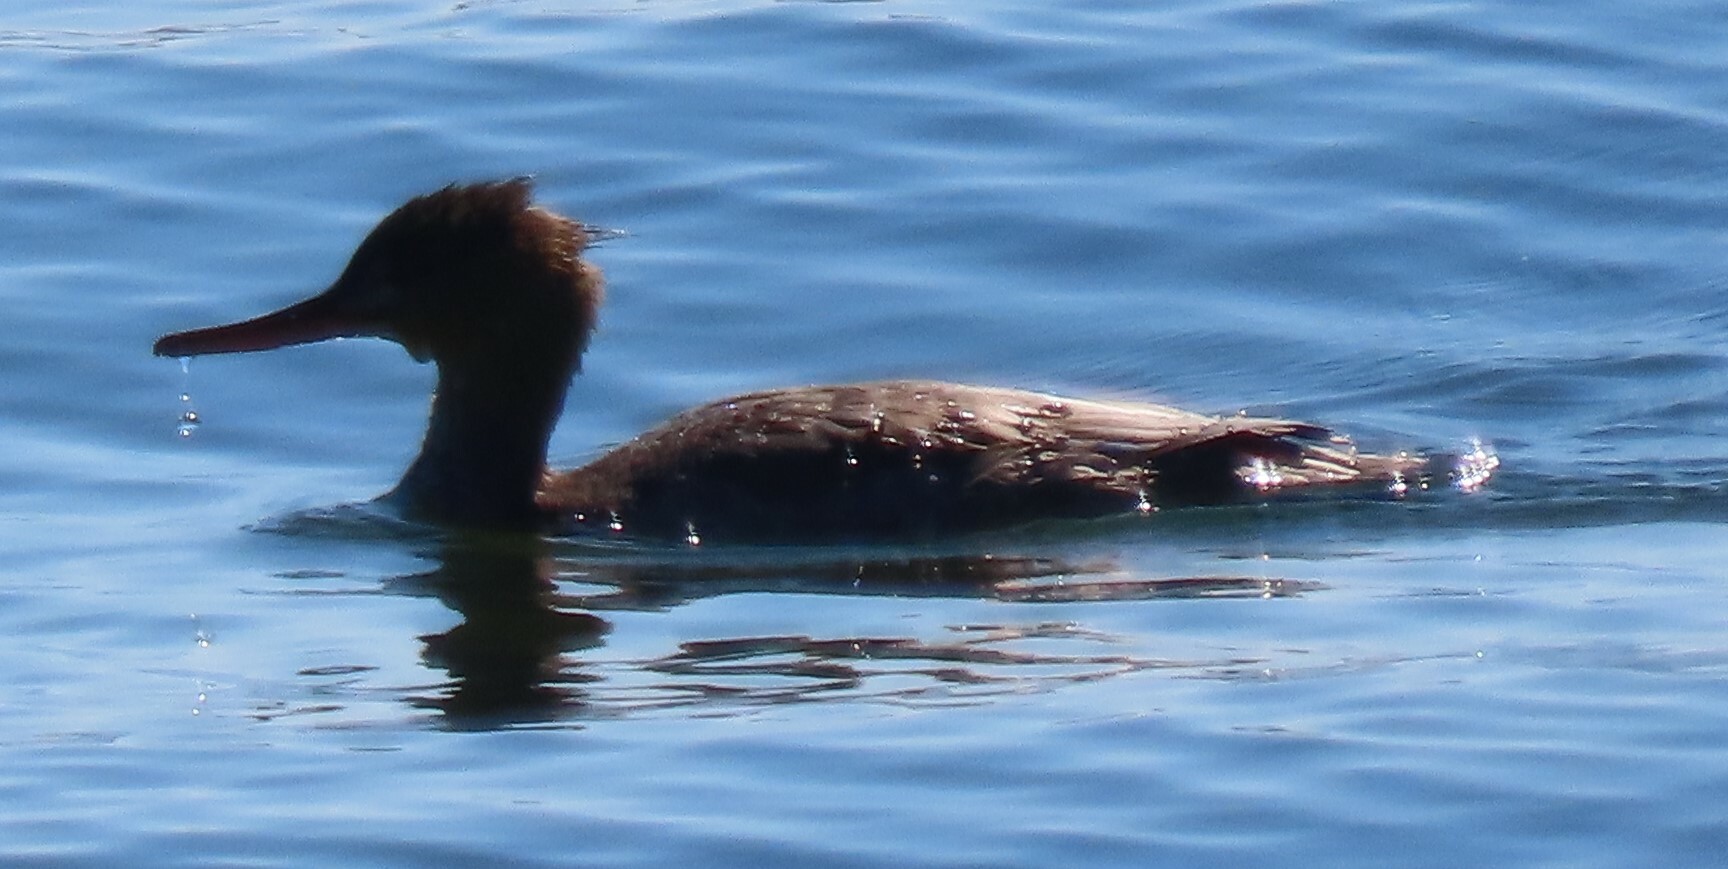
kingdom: Animalia
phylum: Chordata
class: Aves
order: Anseriformes
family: Anatidae
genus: Mergus
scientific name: Mergus serrator
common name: Red-breasted merganser
